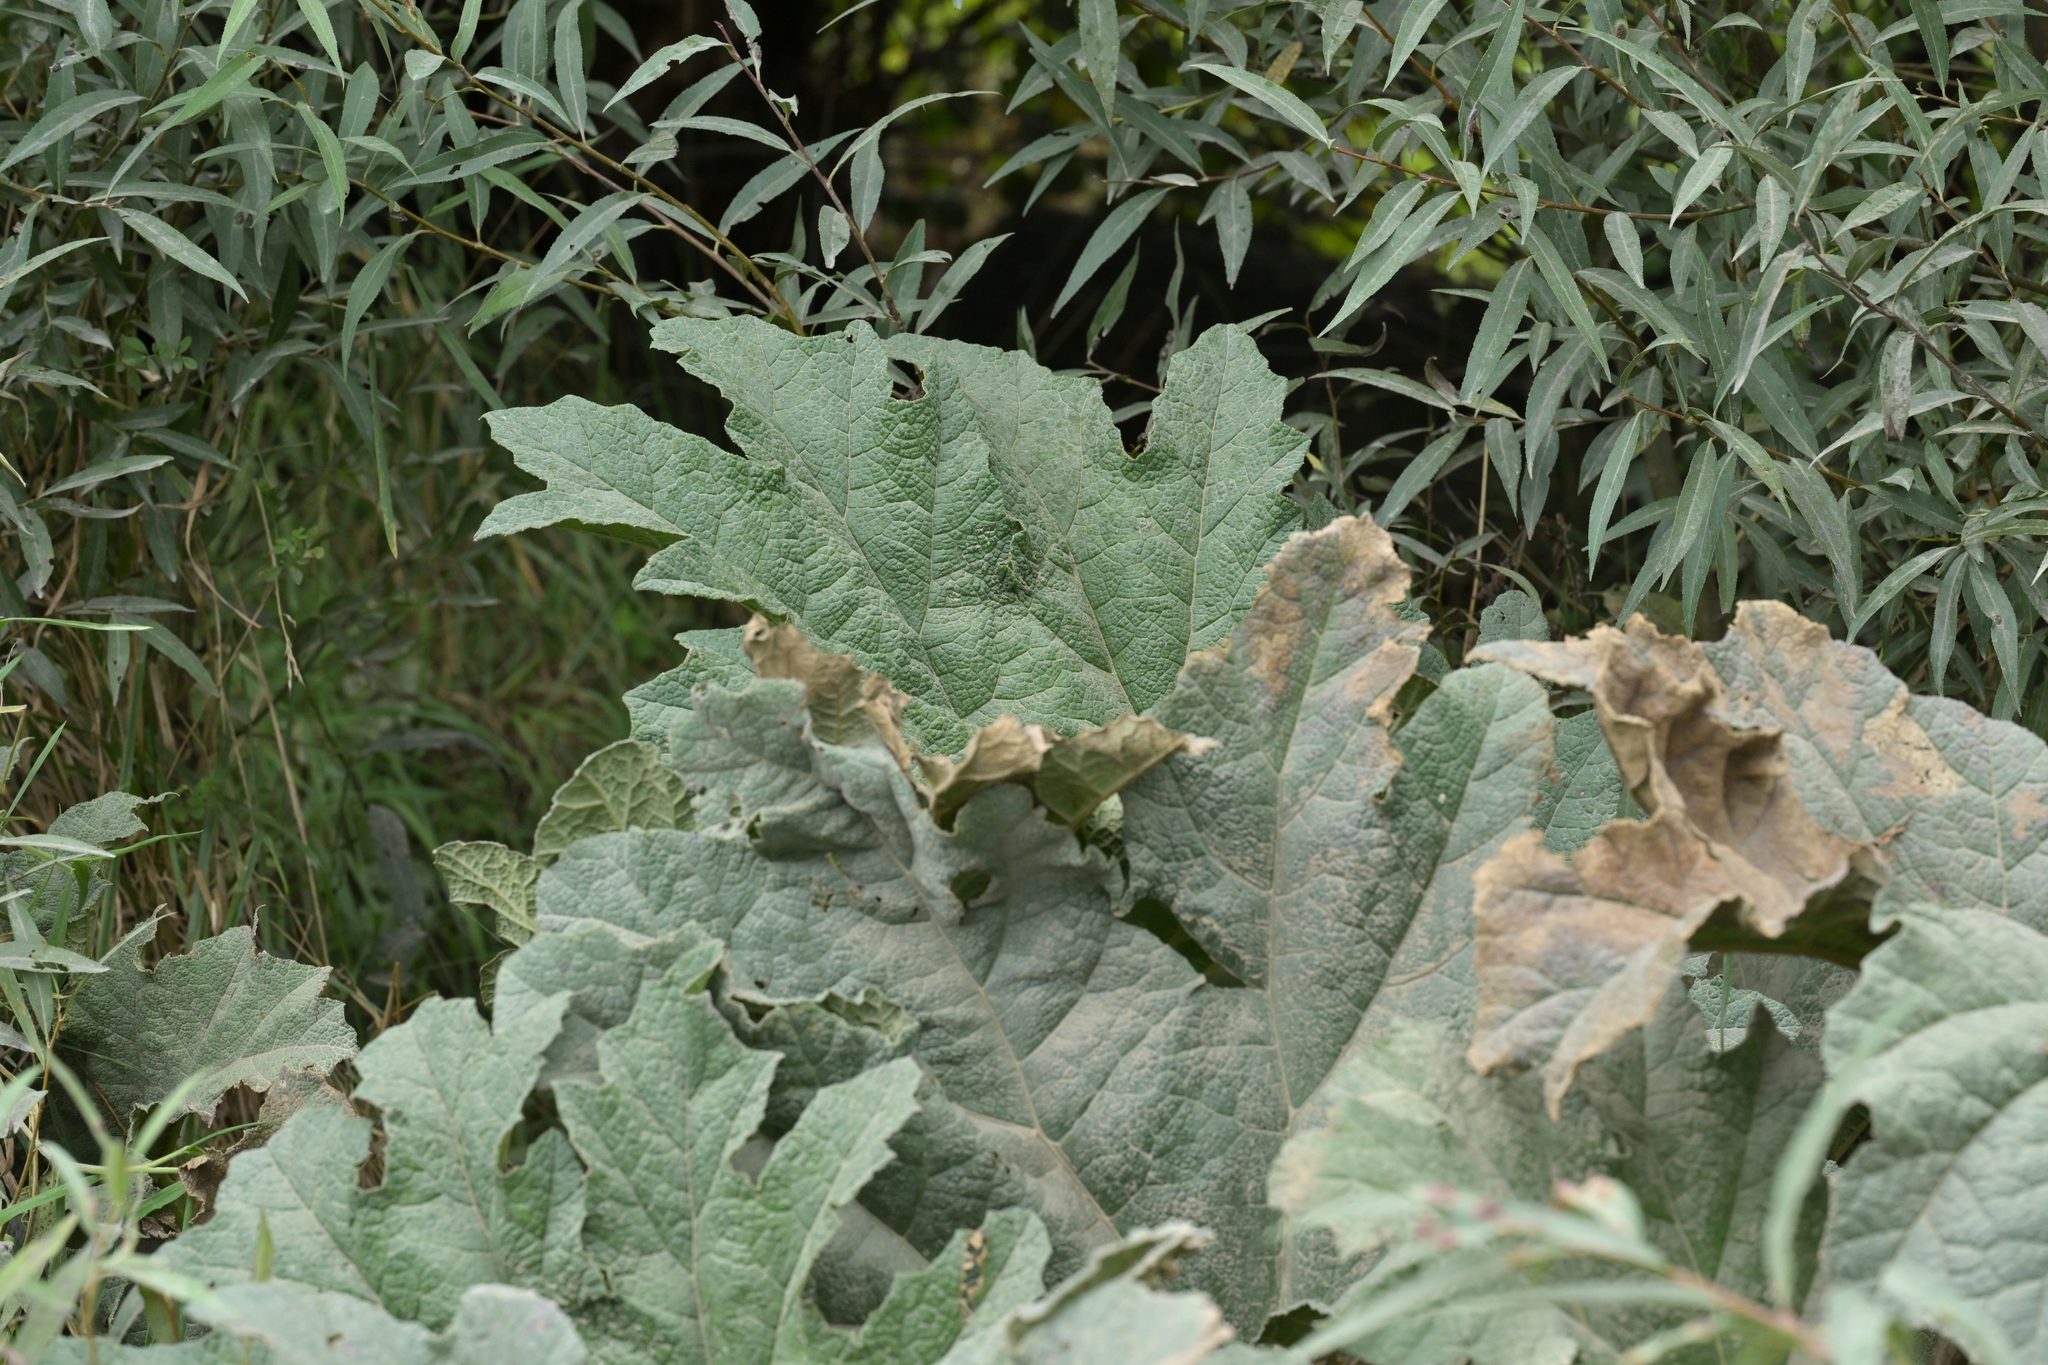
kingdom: Plantae
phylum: Tracheophyta
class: Magnoliopsida
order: Gunnerales
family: Gunneraceae
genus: Gunnera
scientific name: Gunnera tinctoria
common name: Giant-rhubarb
